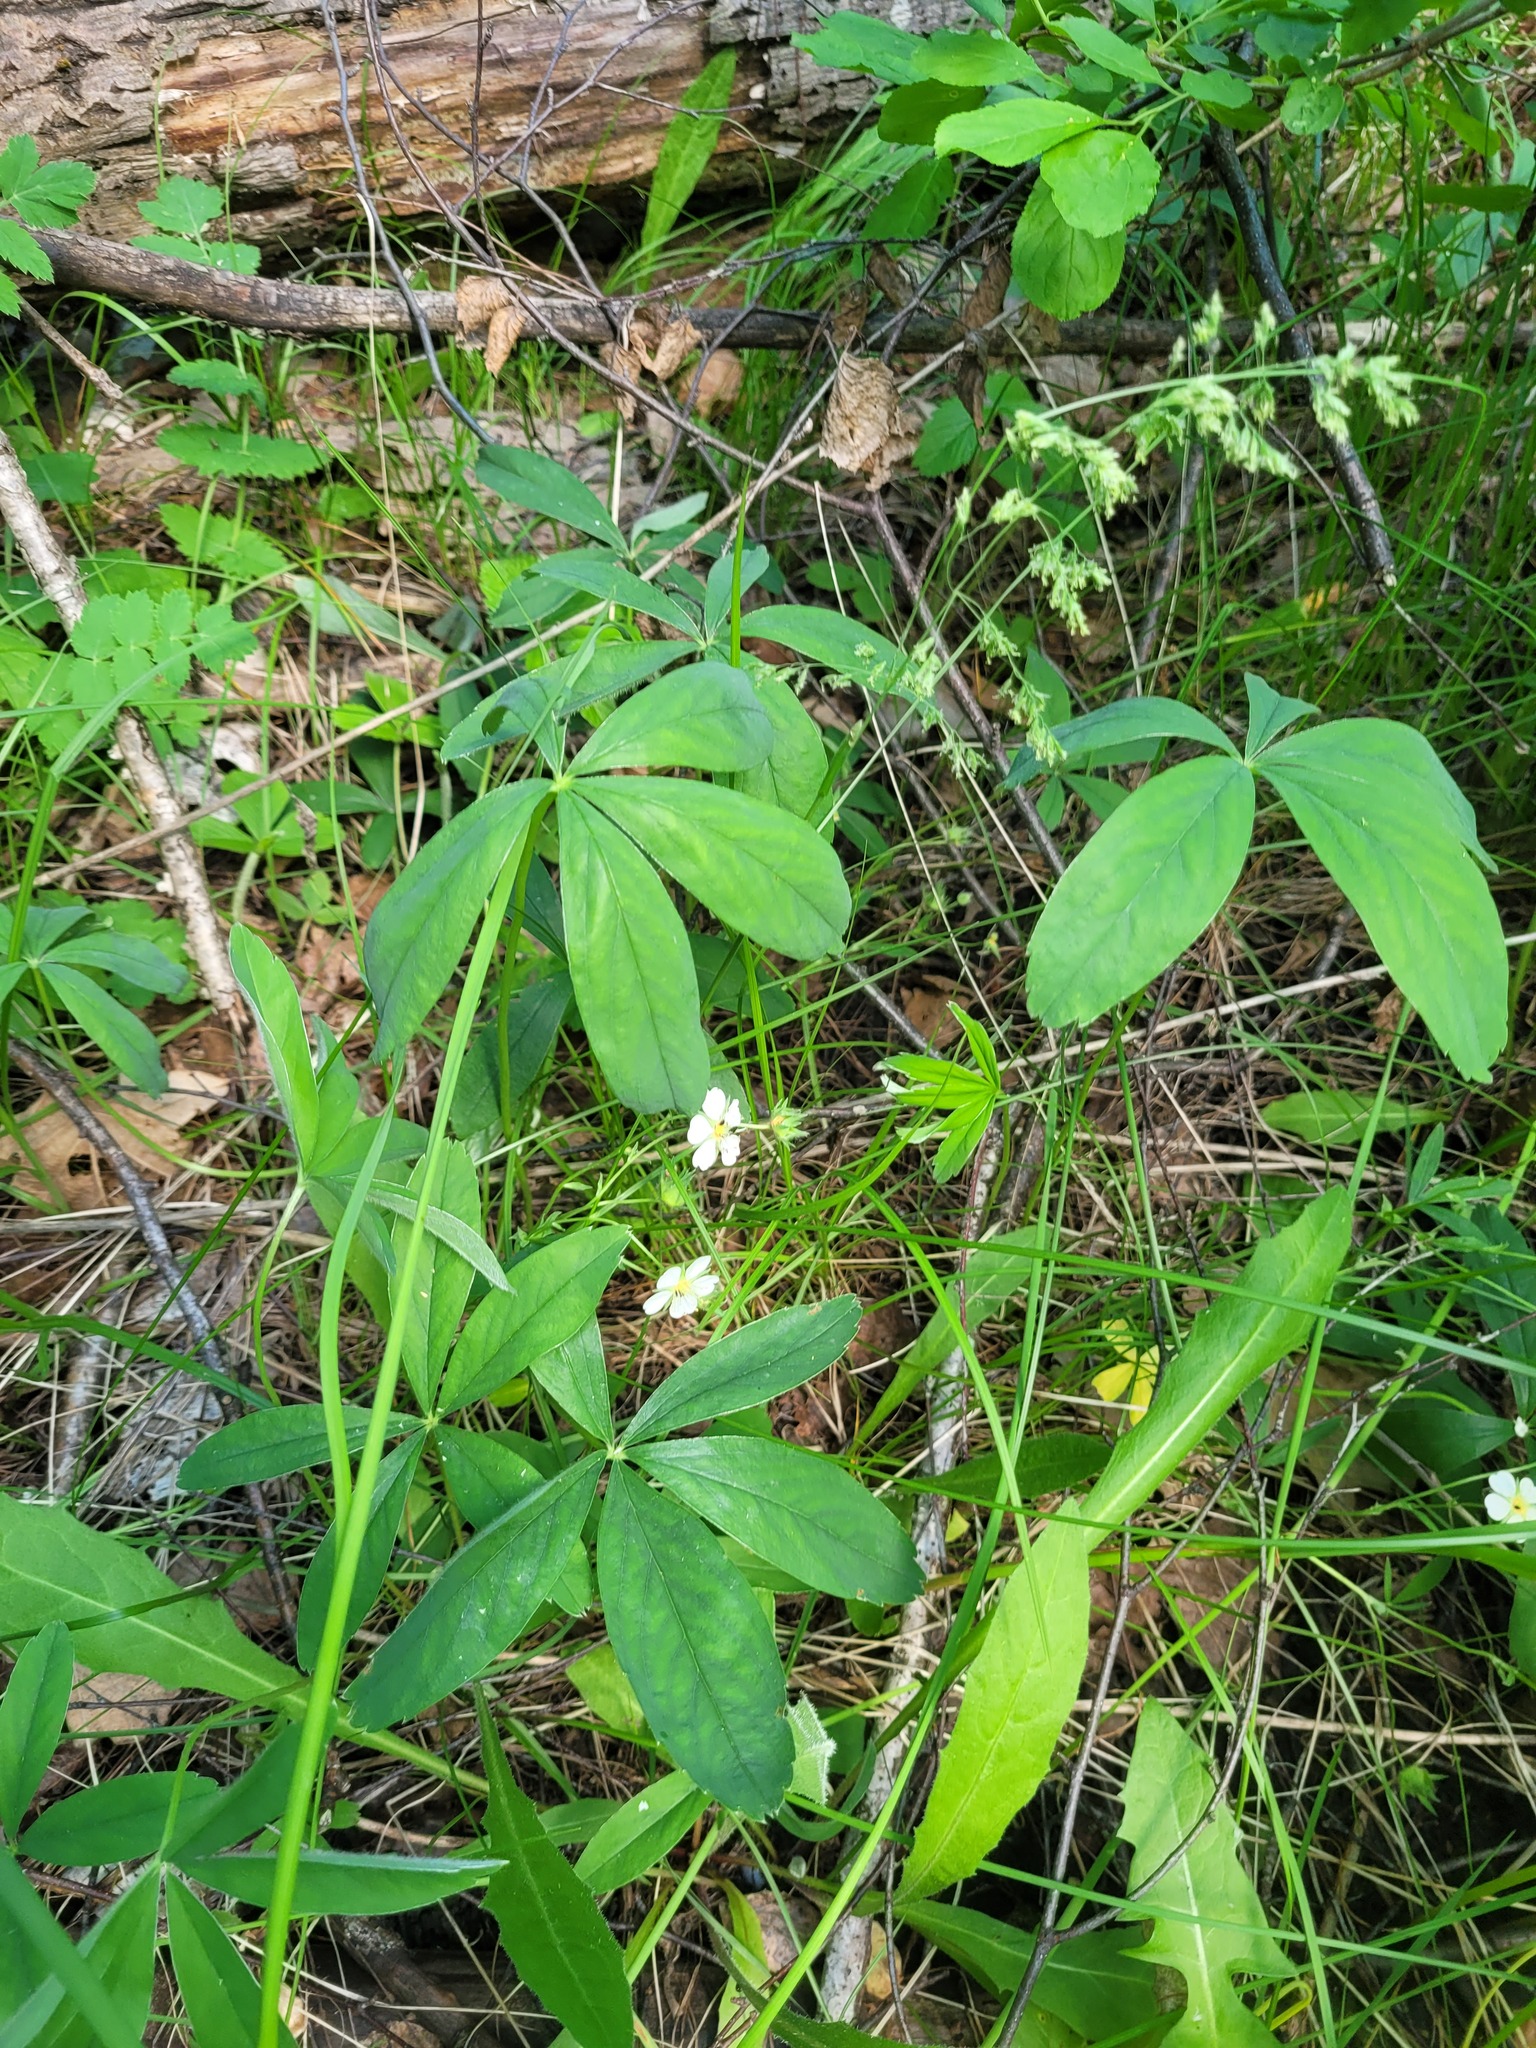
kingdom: Plantae
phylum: Tracheophyta
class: Magnoliopsida
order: Rosales
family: Rosaceae
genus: Potentilla
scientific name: Potentilla alba
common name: White cinquefoil
